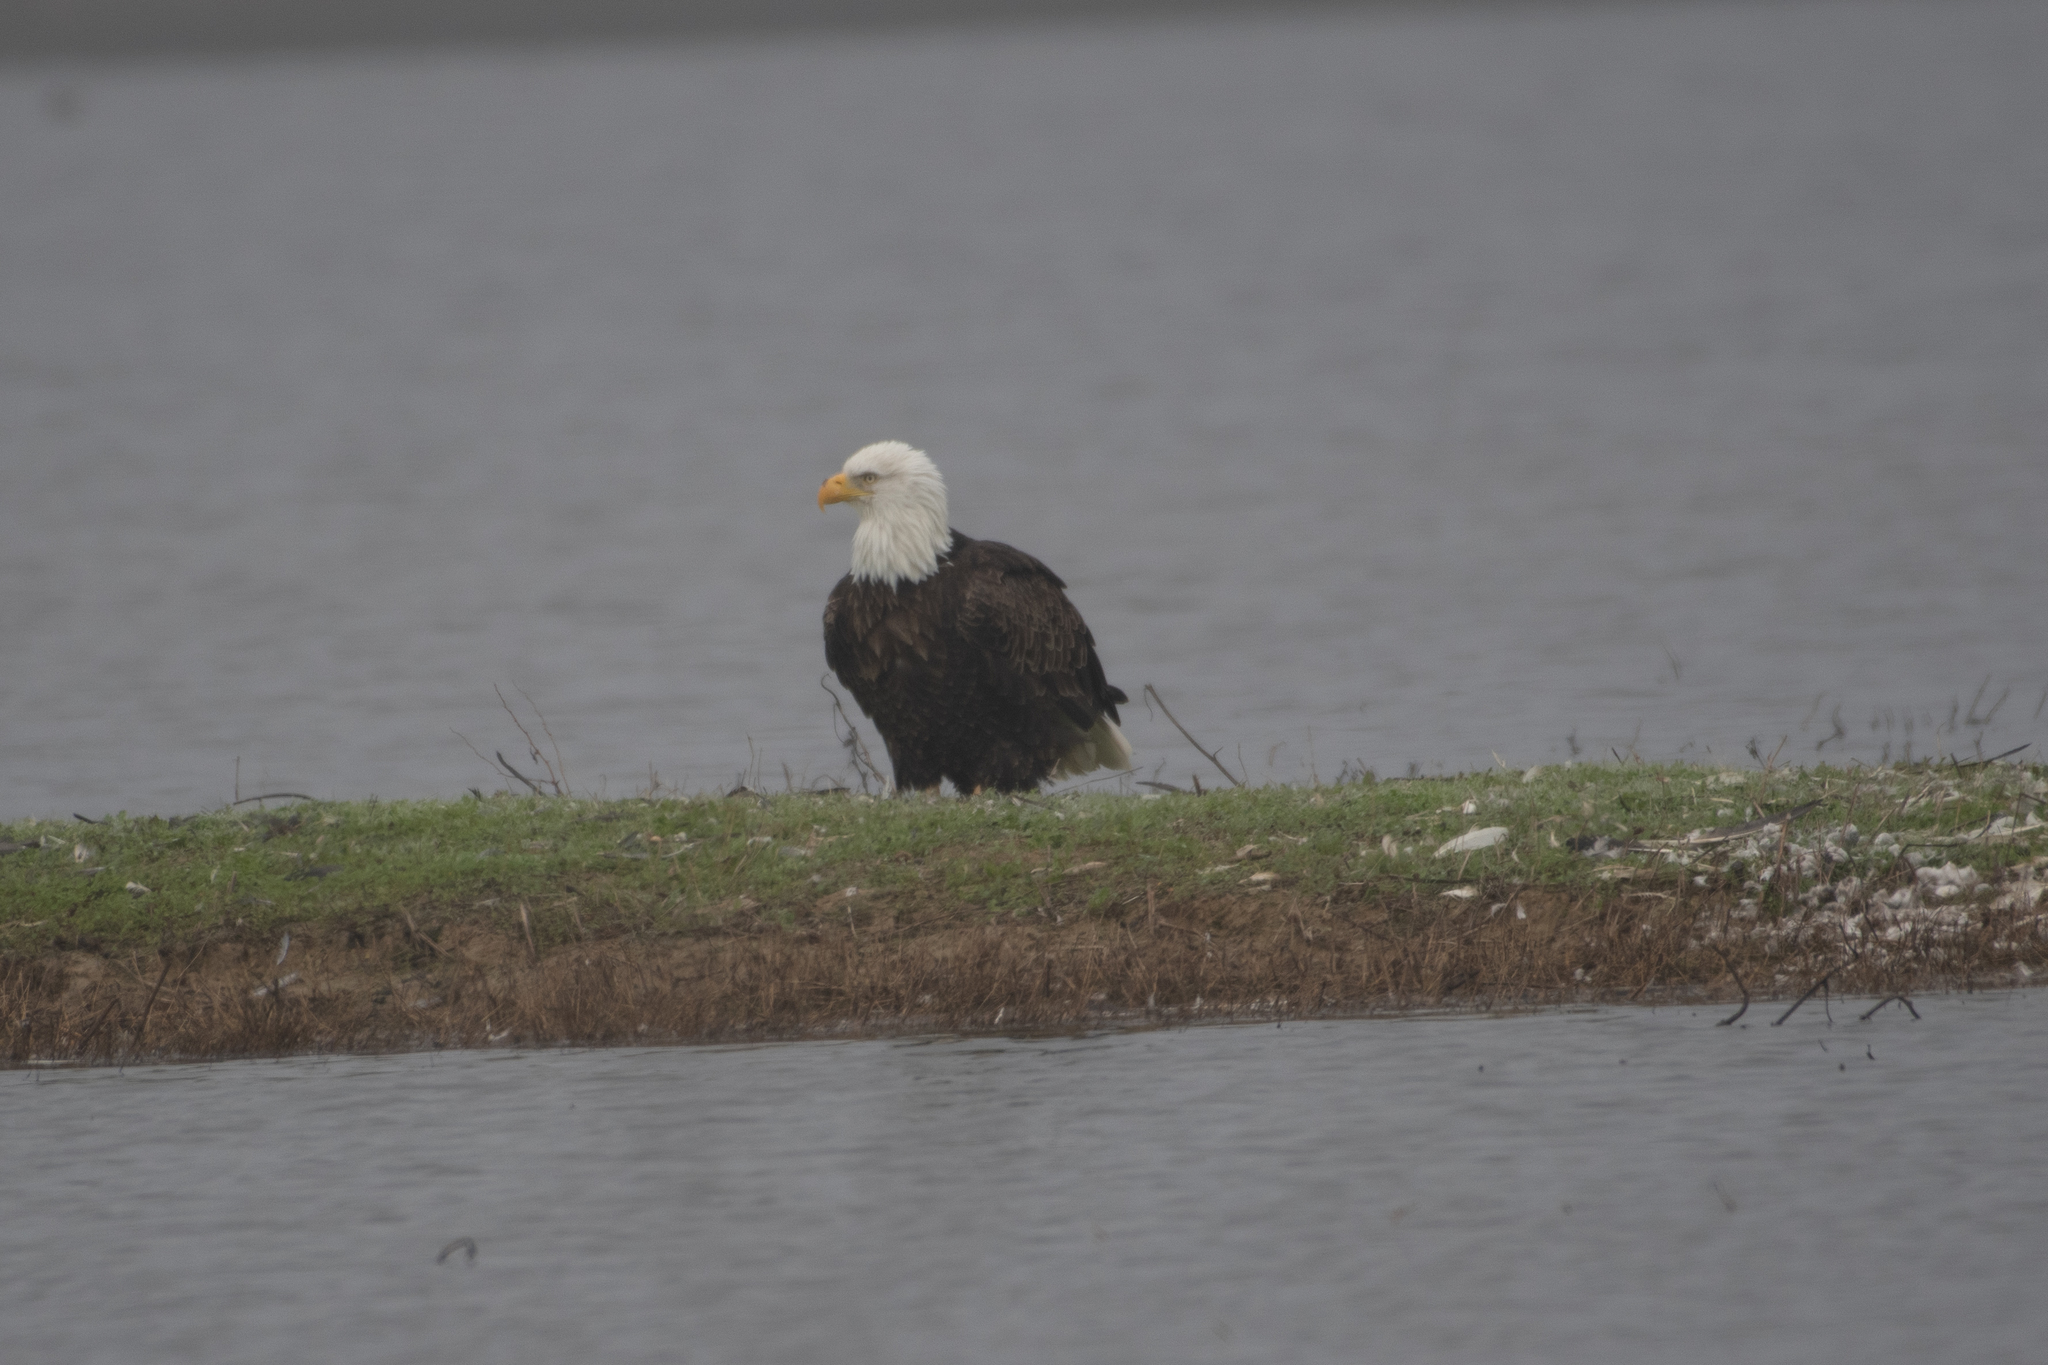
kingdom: Animalia
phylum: Chordata
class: Aves
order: Accipitriformes
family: Accipitridae
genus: Haliaeetus
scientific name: Haliaeetus leucocephalus
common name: Bald eagle
